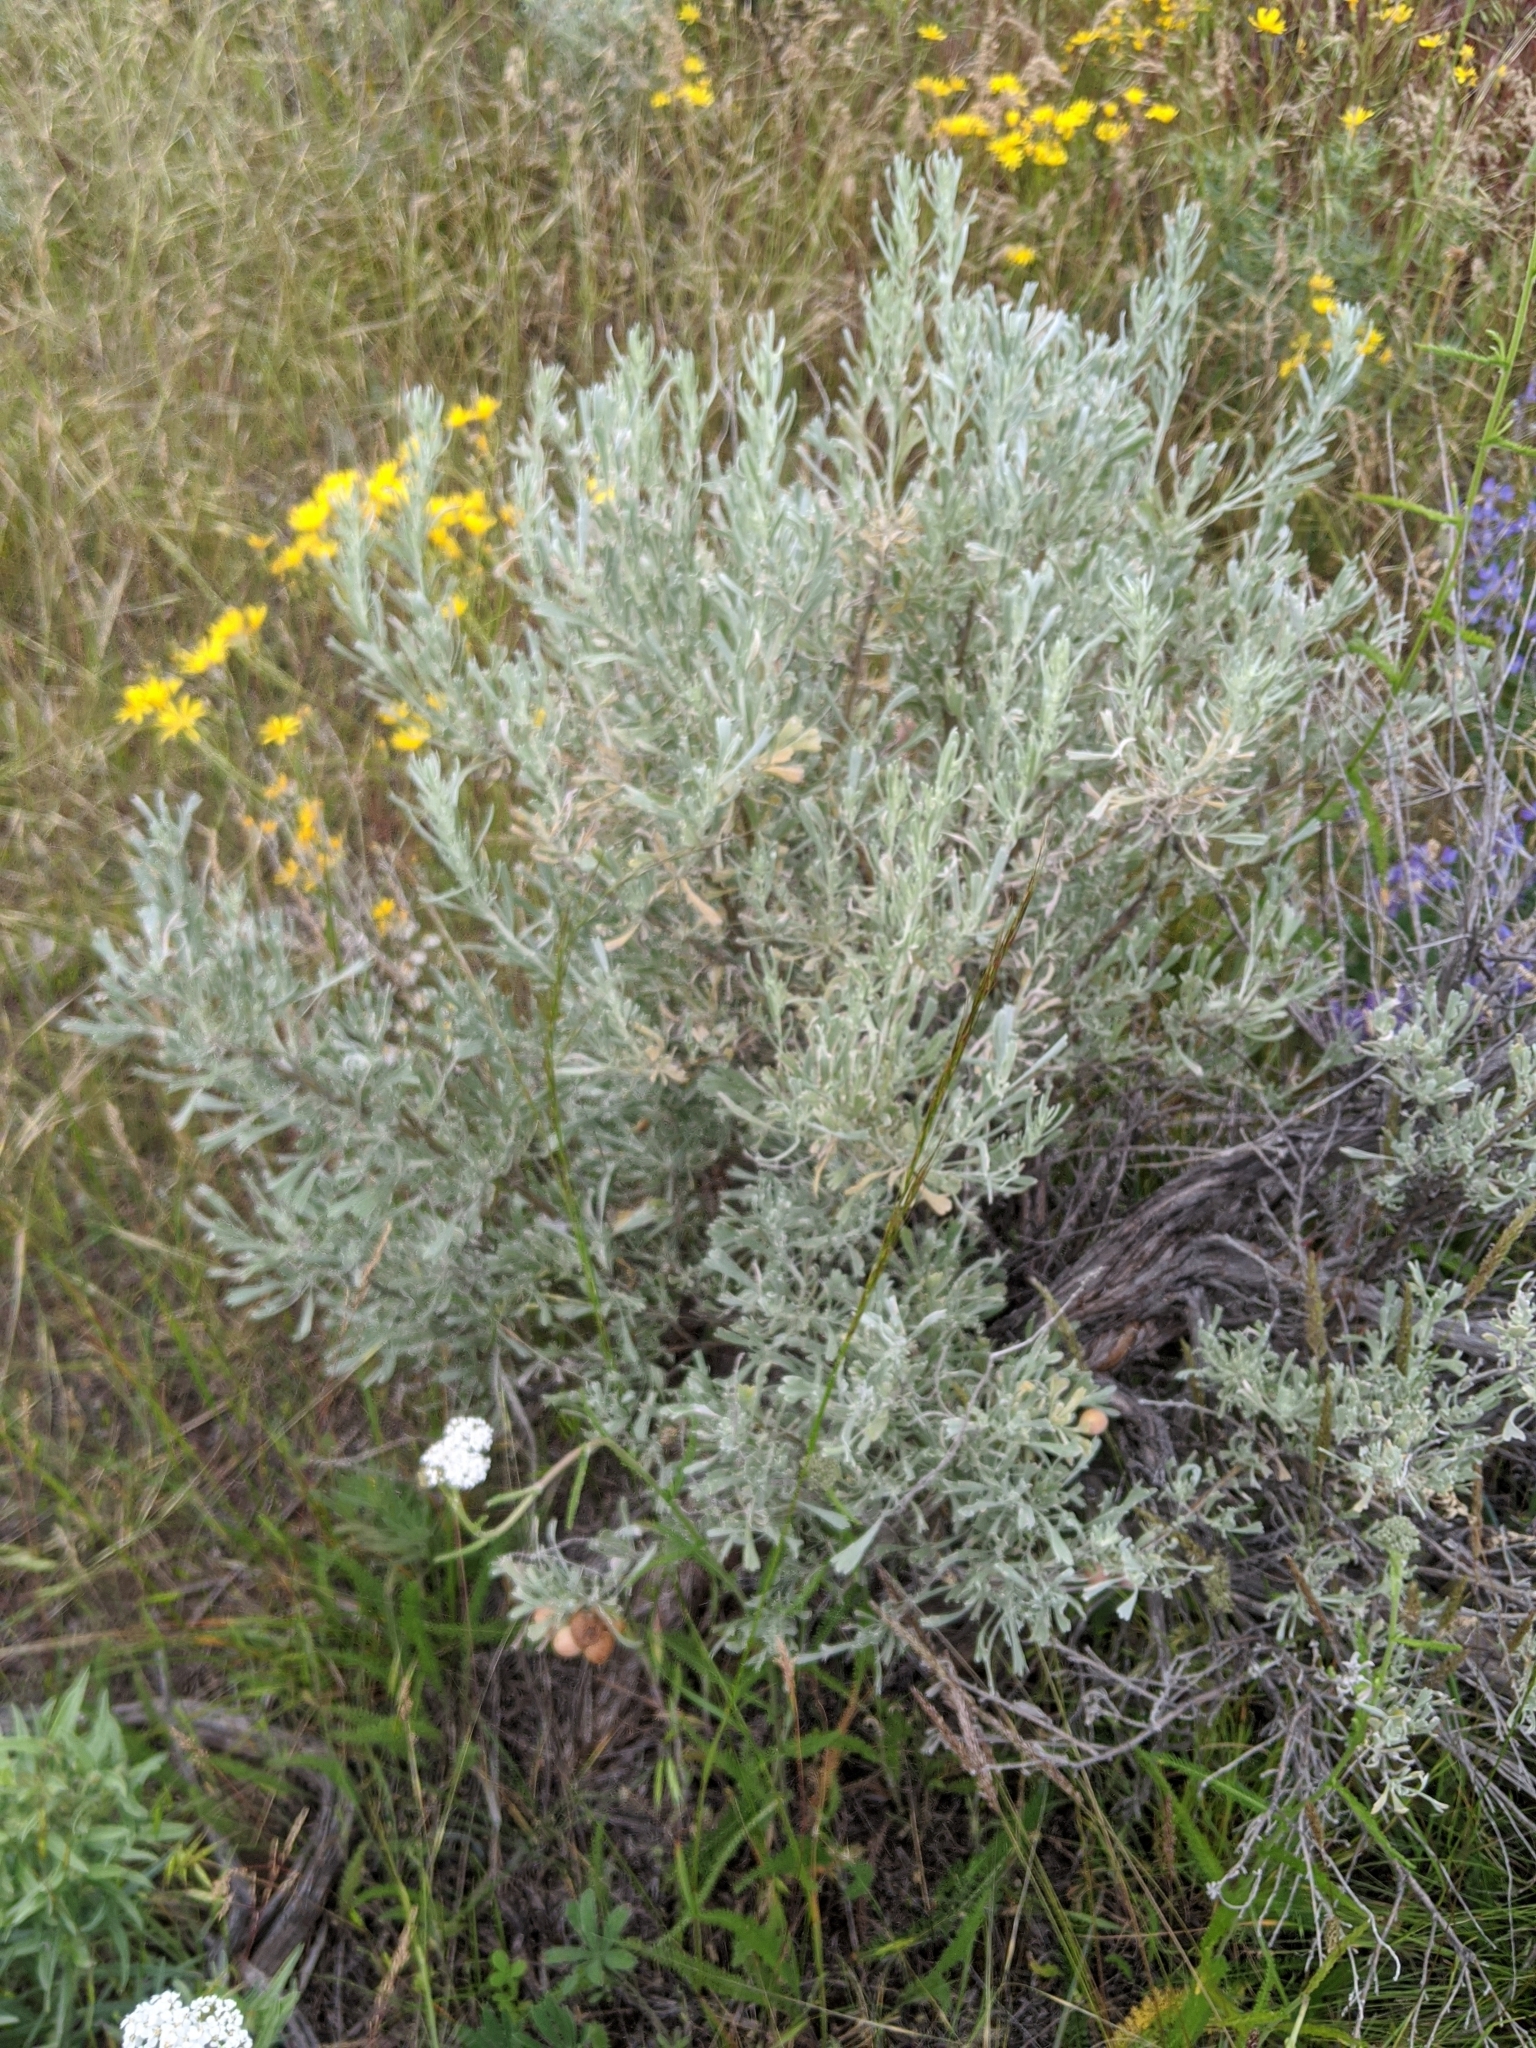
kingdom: Plantae
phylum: Tracheophyta
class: Magnoliopsida
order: Asterales
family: Asteraceae
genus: Artemisia
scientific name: Artemisia tridentata
